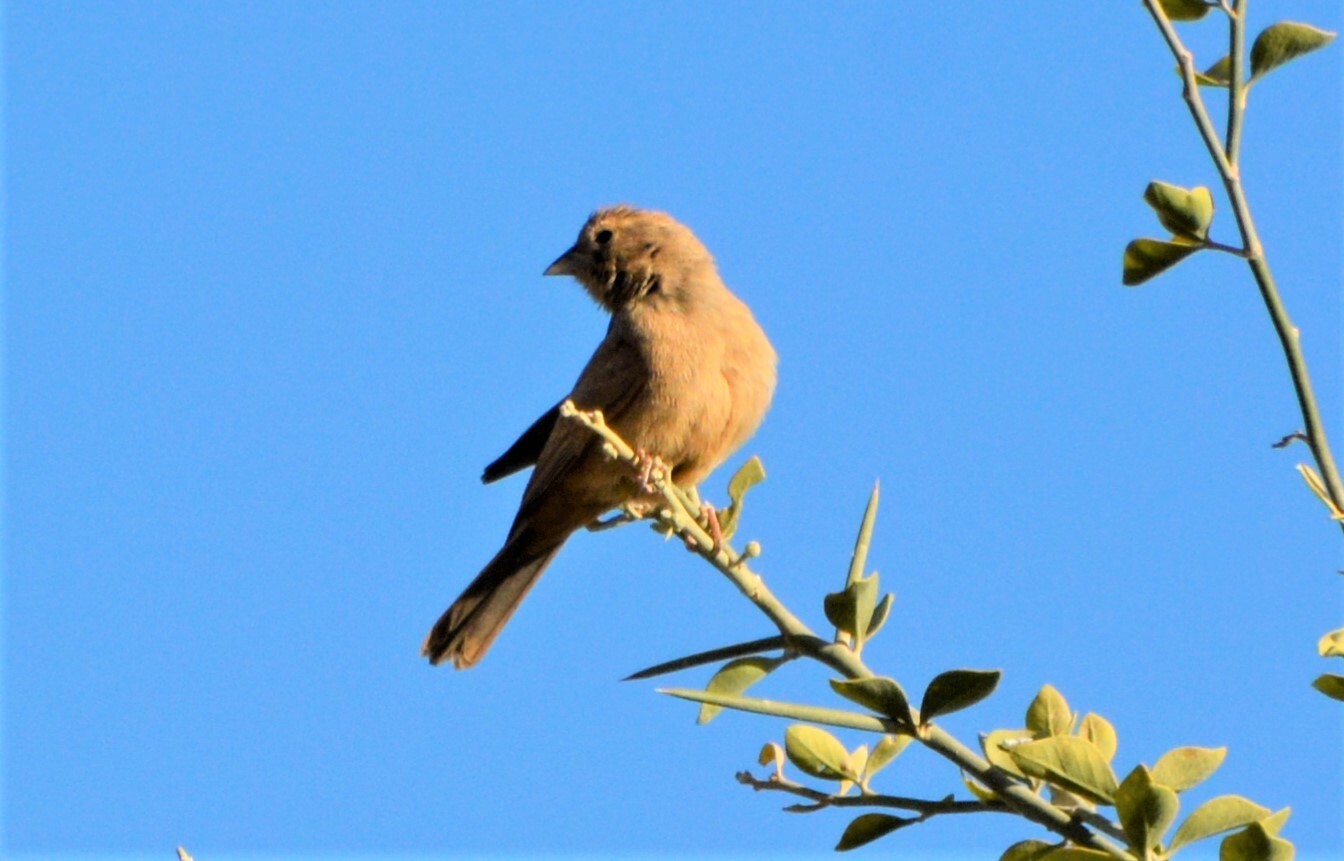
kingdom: Animalia
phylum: Chordata
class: Aves
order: Passeriformes
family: Emberizidae
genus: Emberiza
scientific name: Emberiza sahari
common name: House bunting
